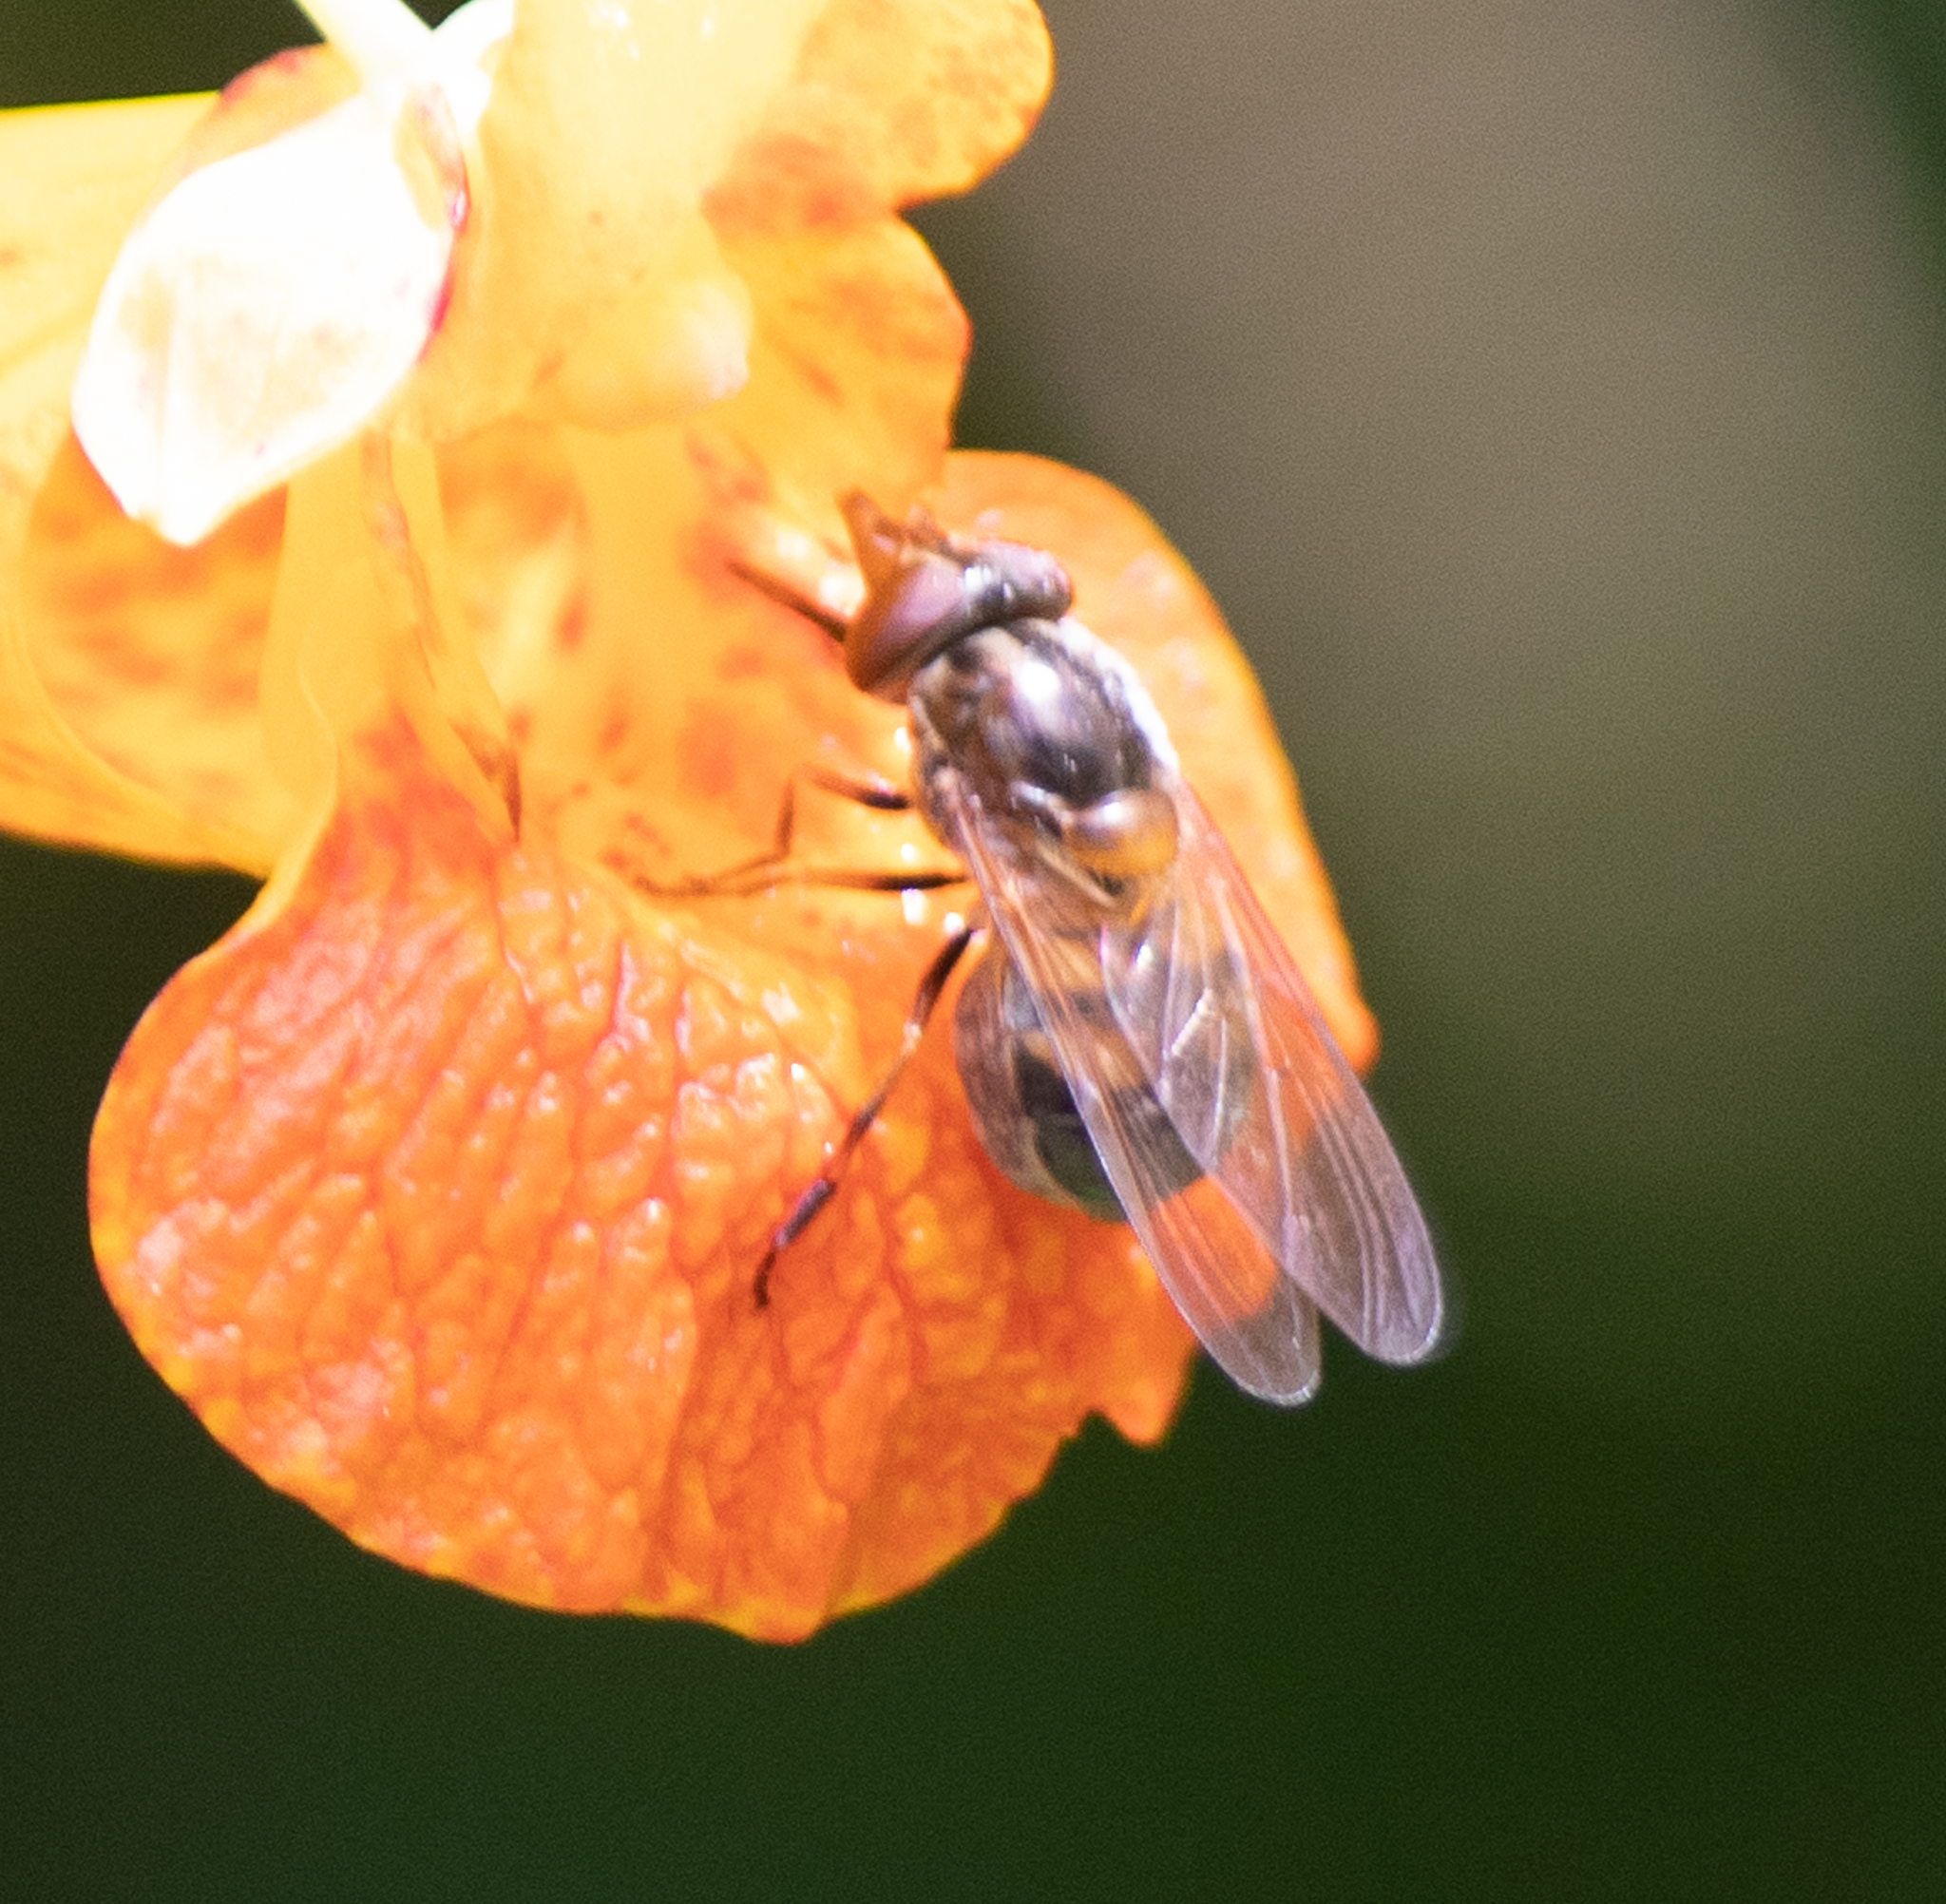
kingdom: Animalia
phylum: Arthropoda
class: Insecta
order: Diptera
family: Syrphidae
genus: Rhingia
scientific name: Rhingia nasica
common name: American snout fly
